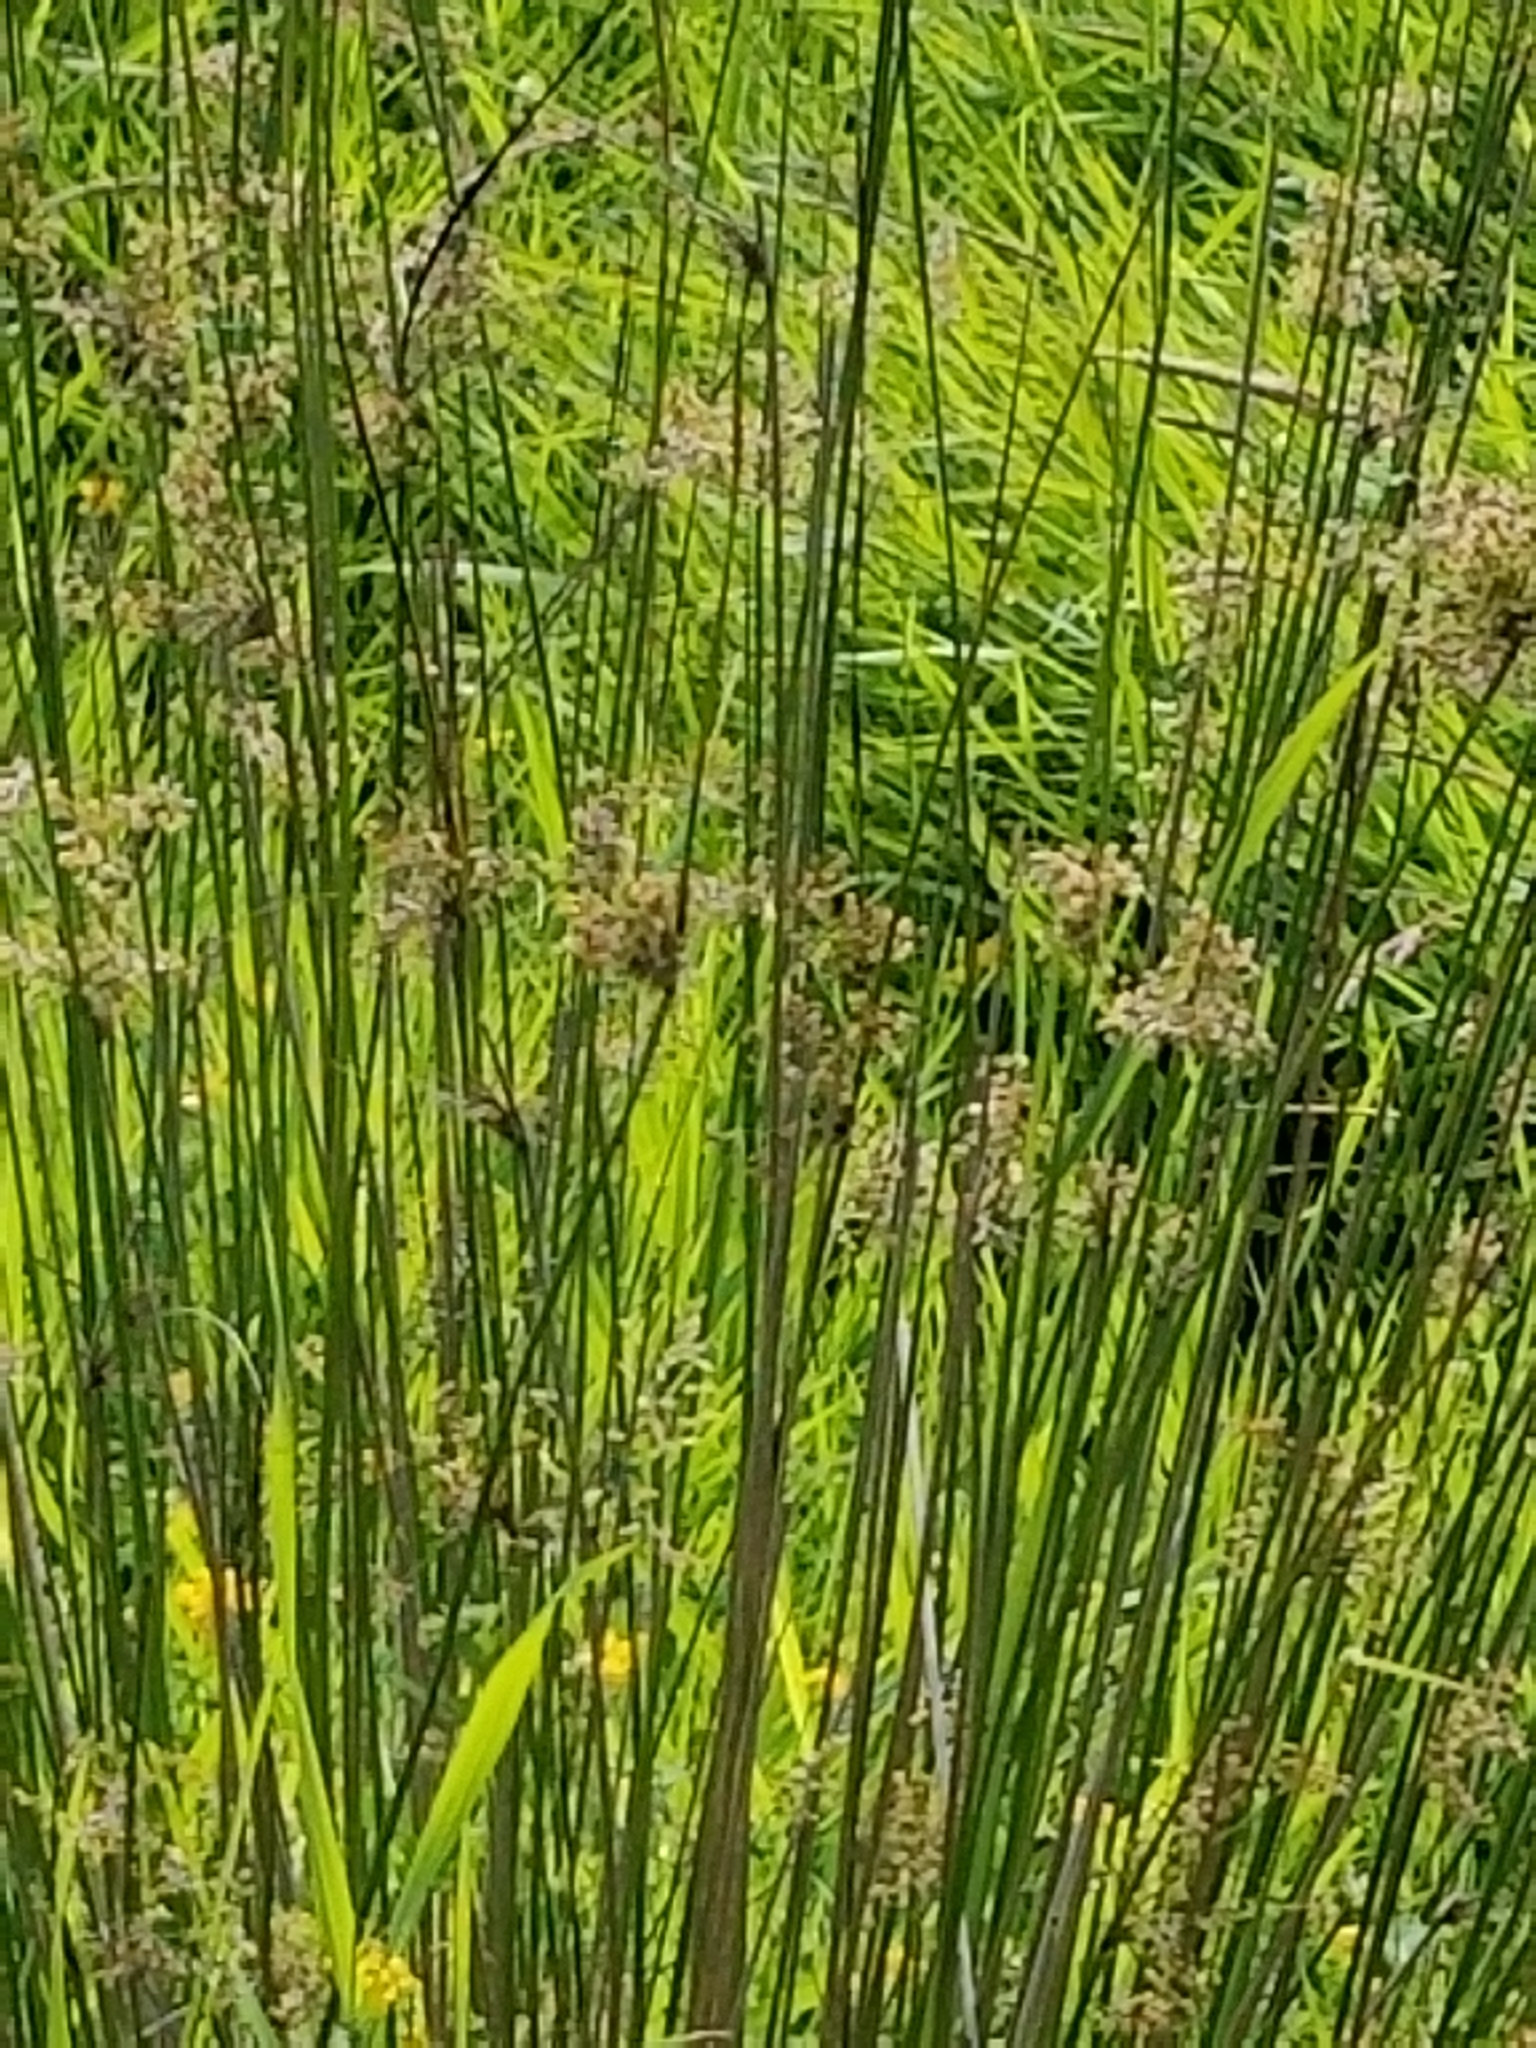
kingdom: Plantae
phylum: Tracheophyta
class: Liliopsida
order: Poales
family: Cyperaceae
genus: Schoenoplectus
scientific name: Schoenoplectus tabernaemontani
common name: Grey club-rush
